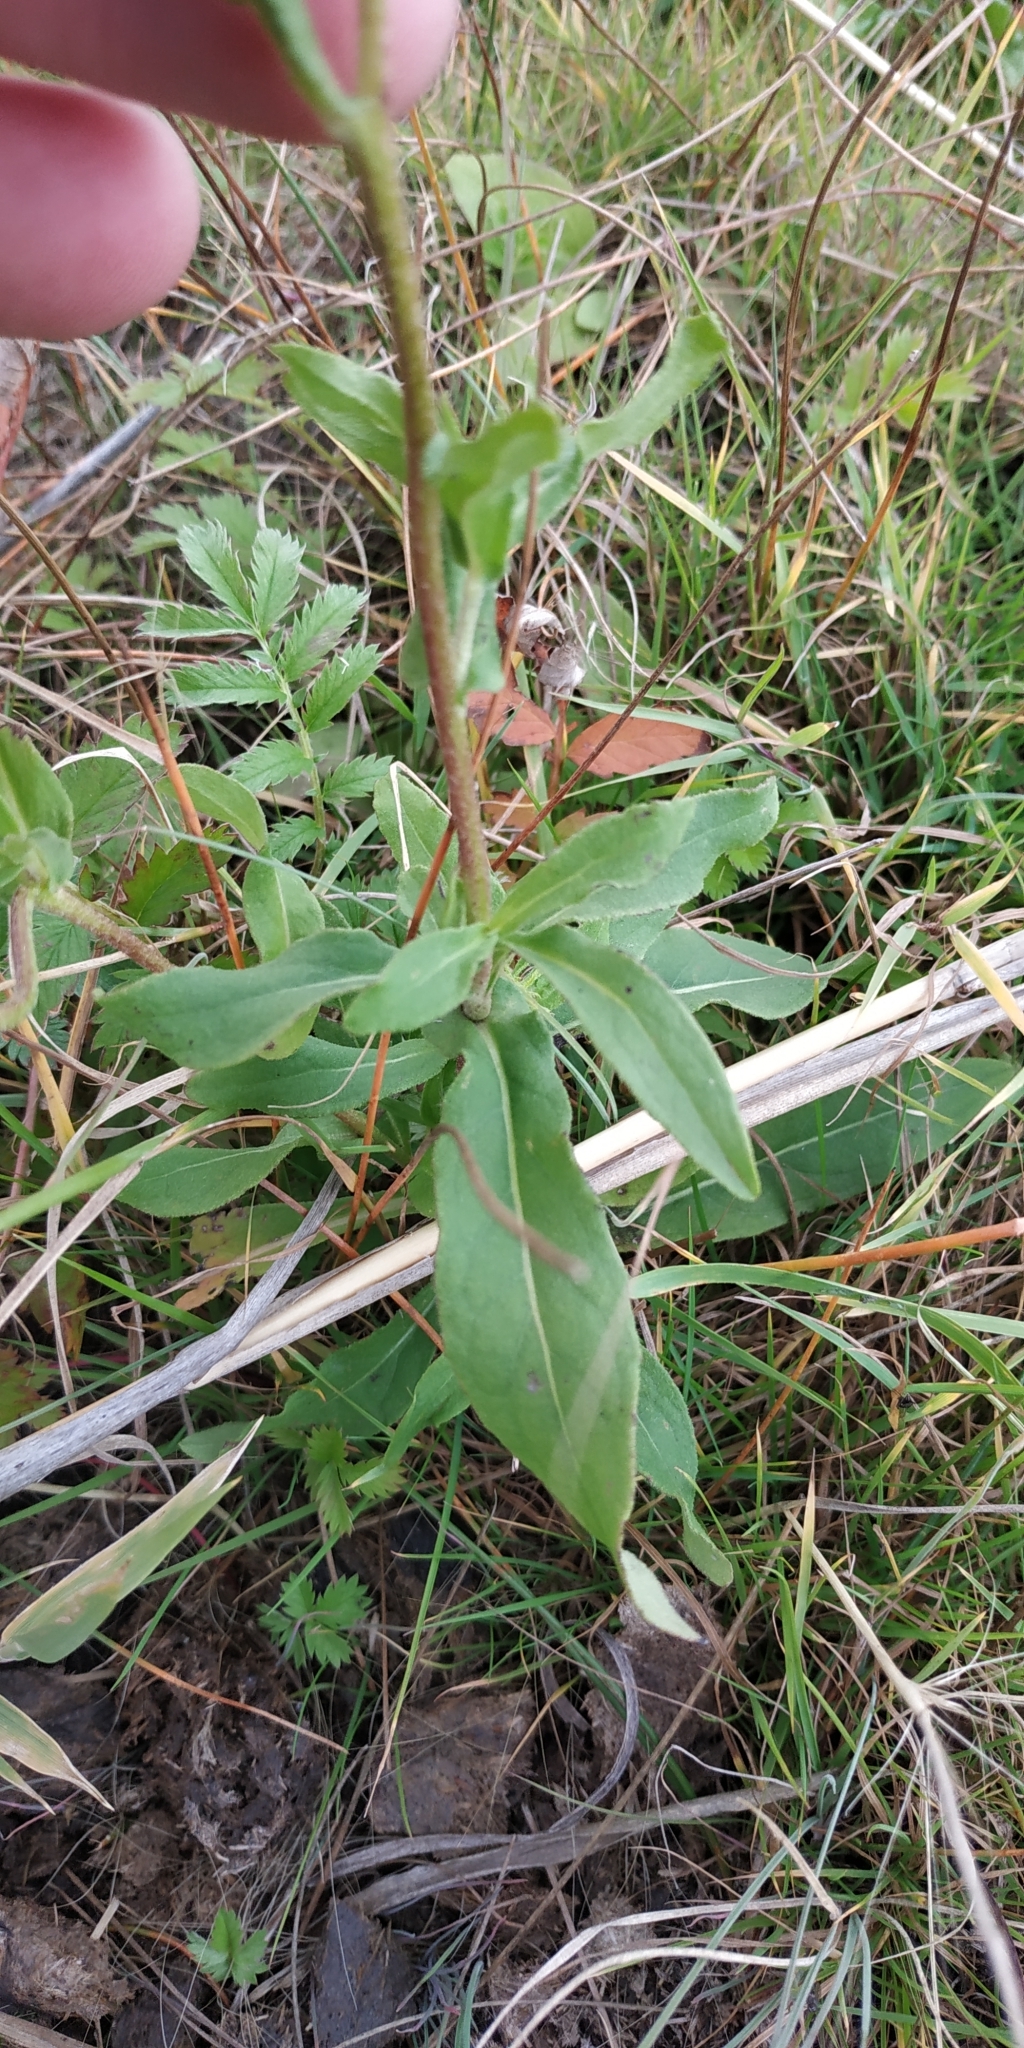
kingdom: Plantae
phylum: Tracheophyta
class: Magnoliopsida
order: Asterales
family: Asteraceae
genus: Pentanema
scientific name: Pentanema britannicum
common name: British elecampane
